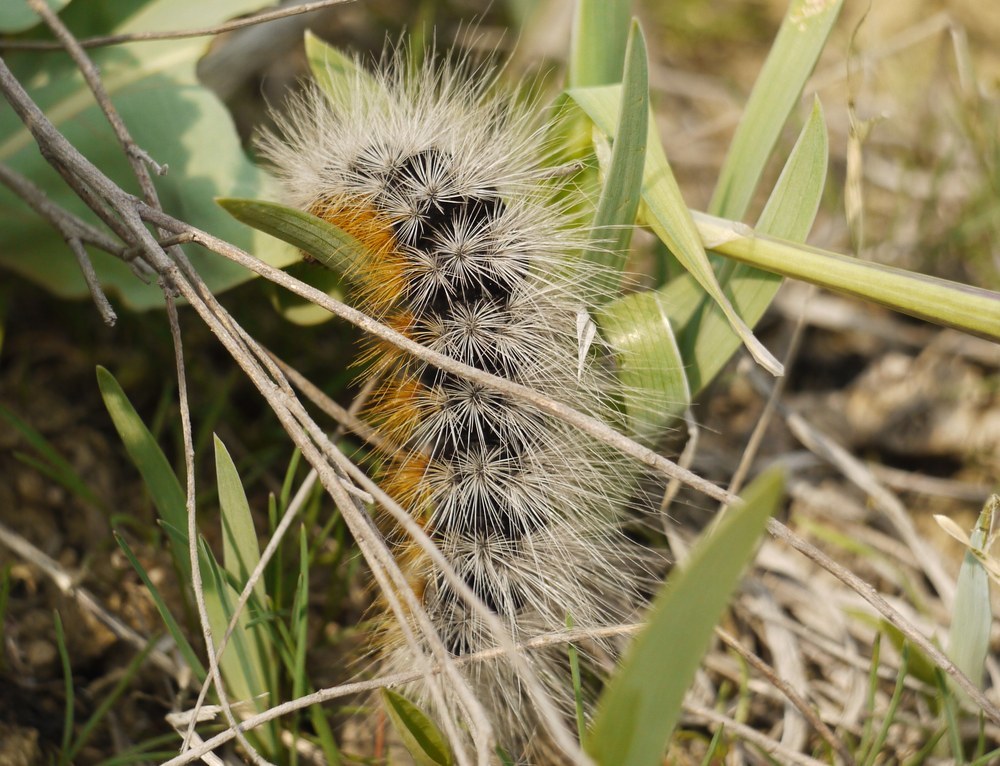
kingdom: Animalia
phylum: Arthropoda
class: Insecta
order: Lepidoptera
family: Erebidae
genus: Eucharia
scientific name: Eucharia festiva
